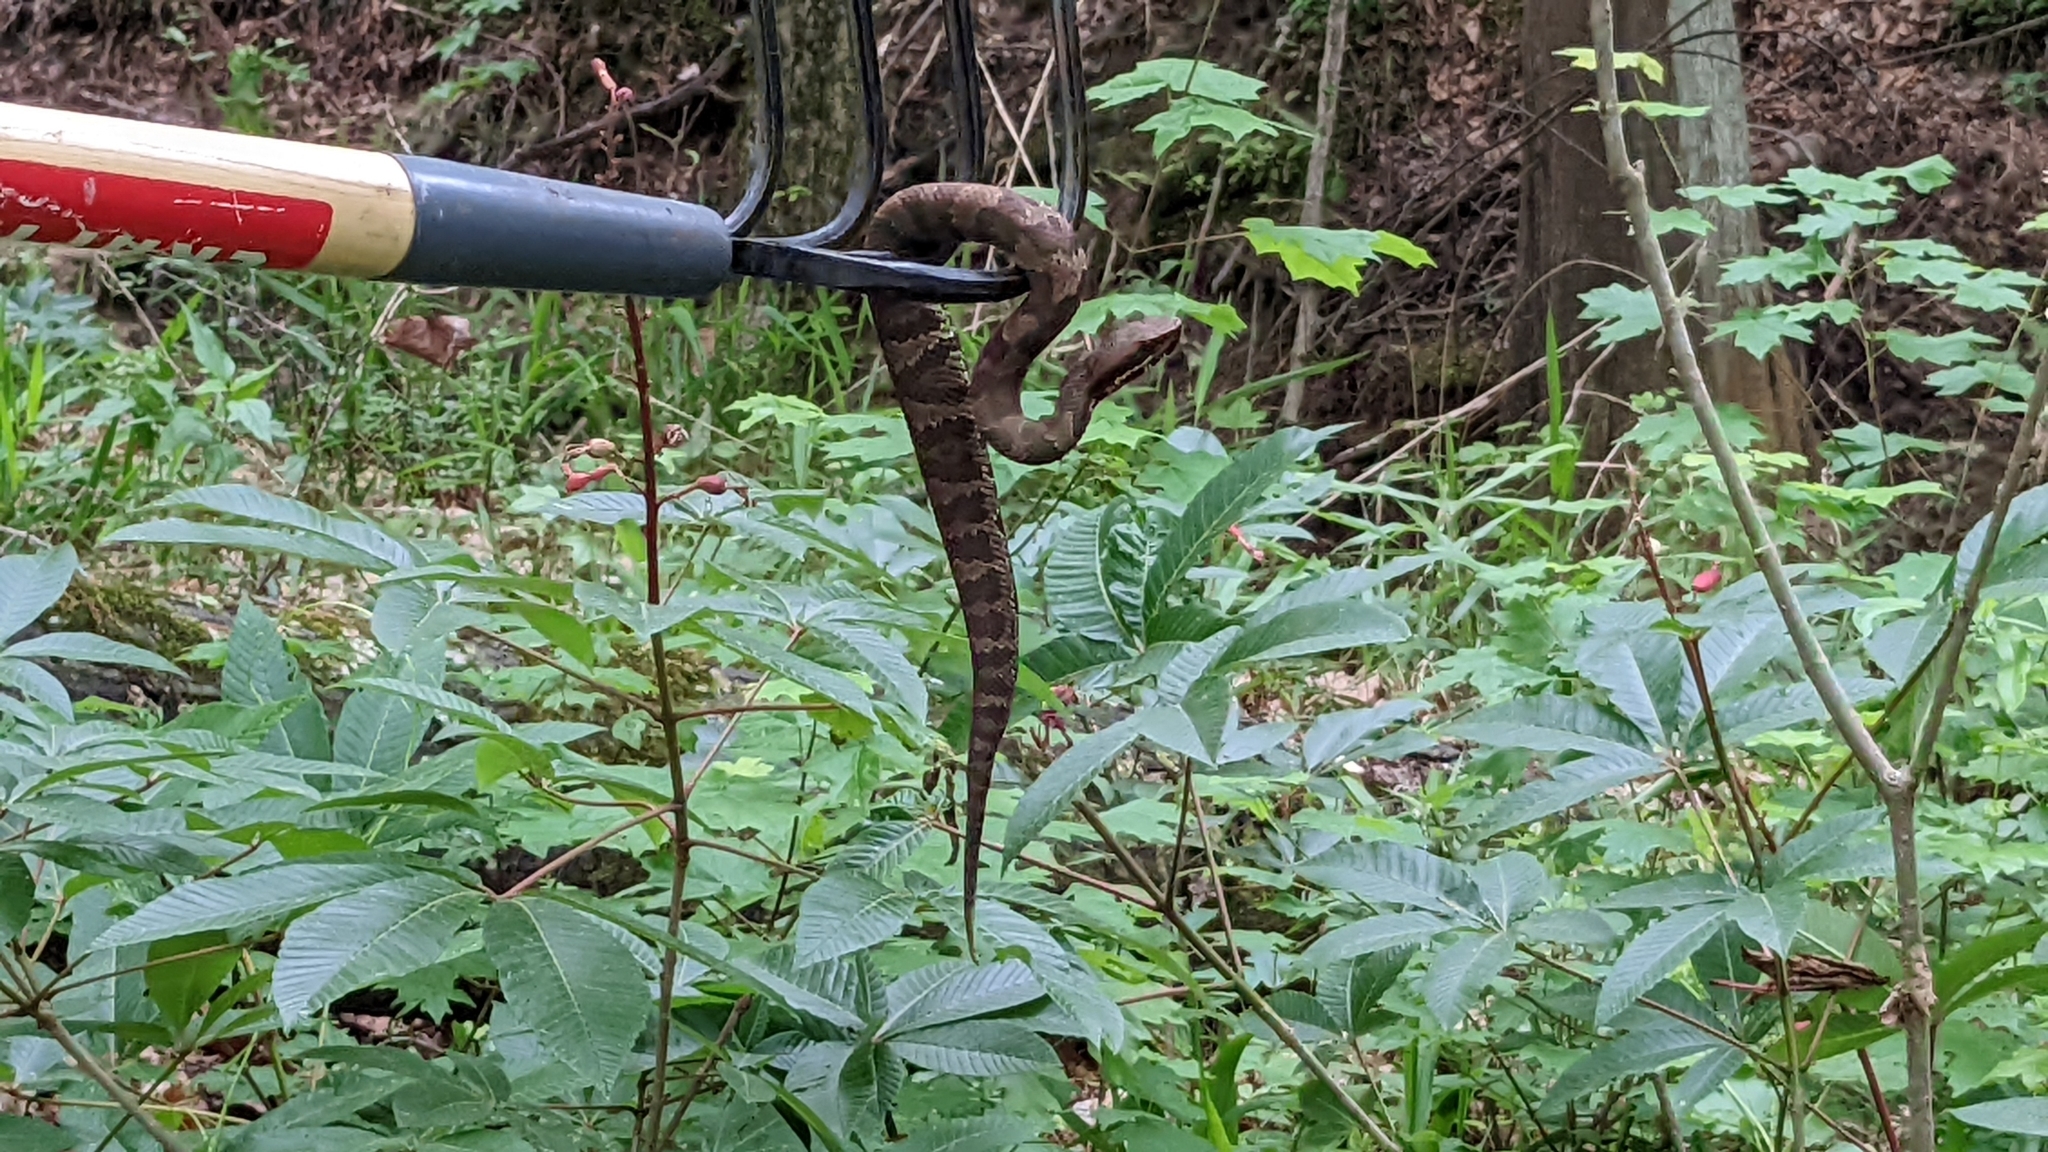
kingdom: Animalia
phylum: Chordata
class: Squamata
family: Viperidae
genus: Agkistrodon
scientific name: Agkistrodon piscivorus
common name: Cottonmouth
